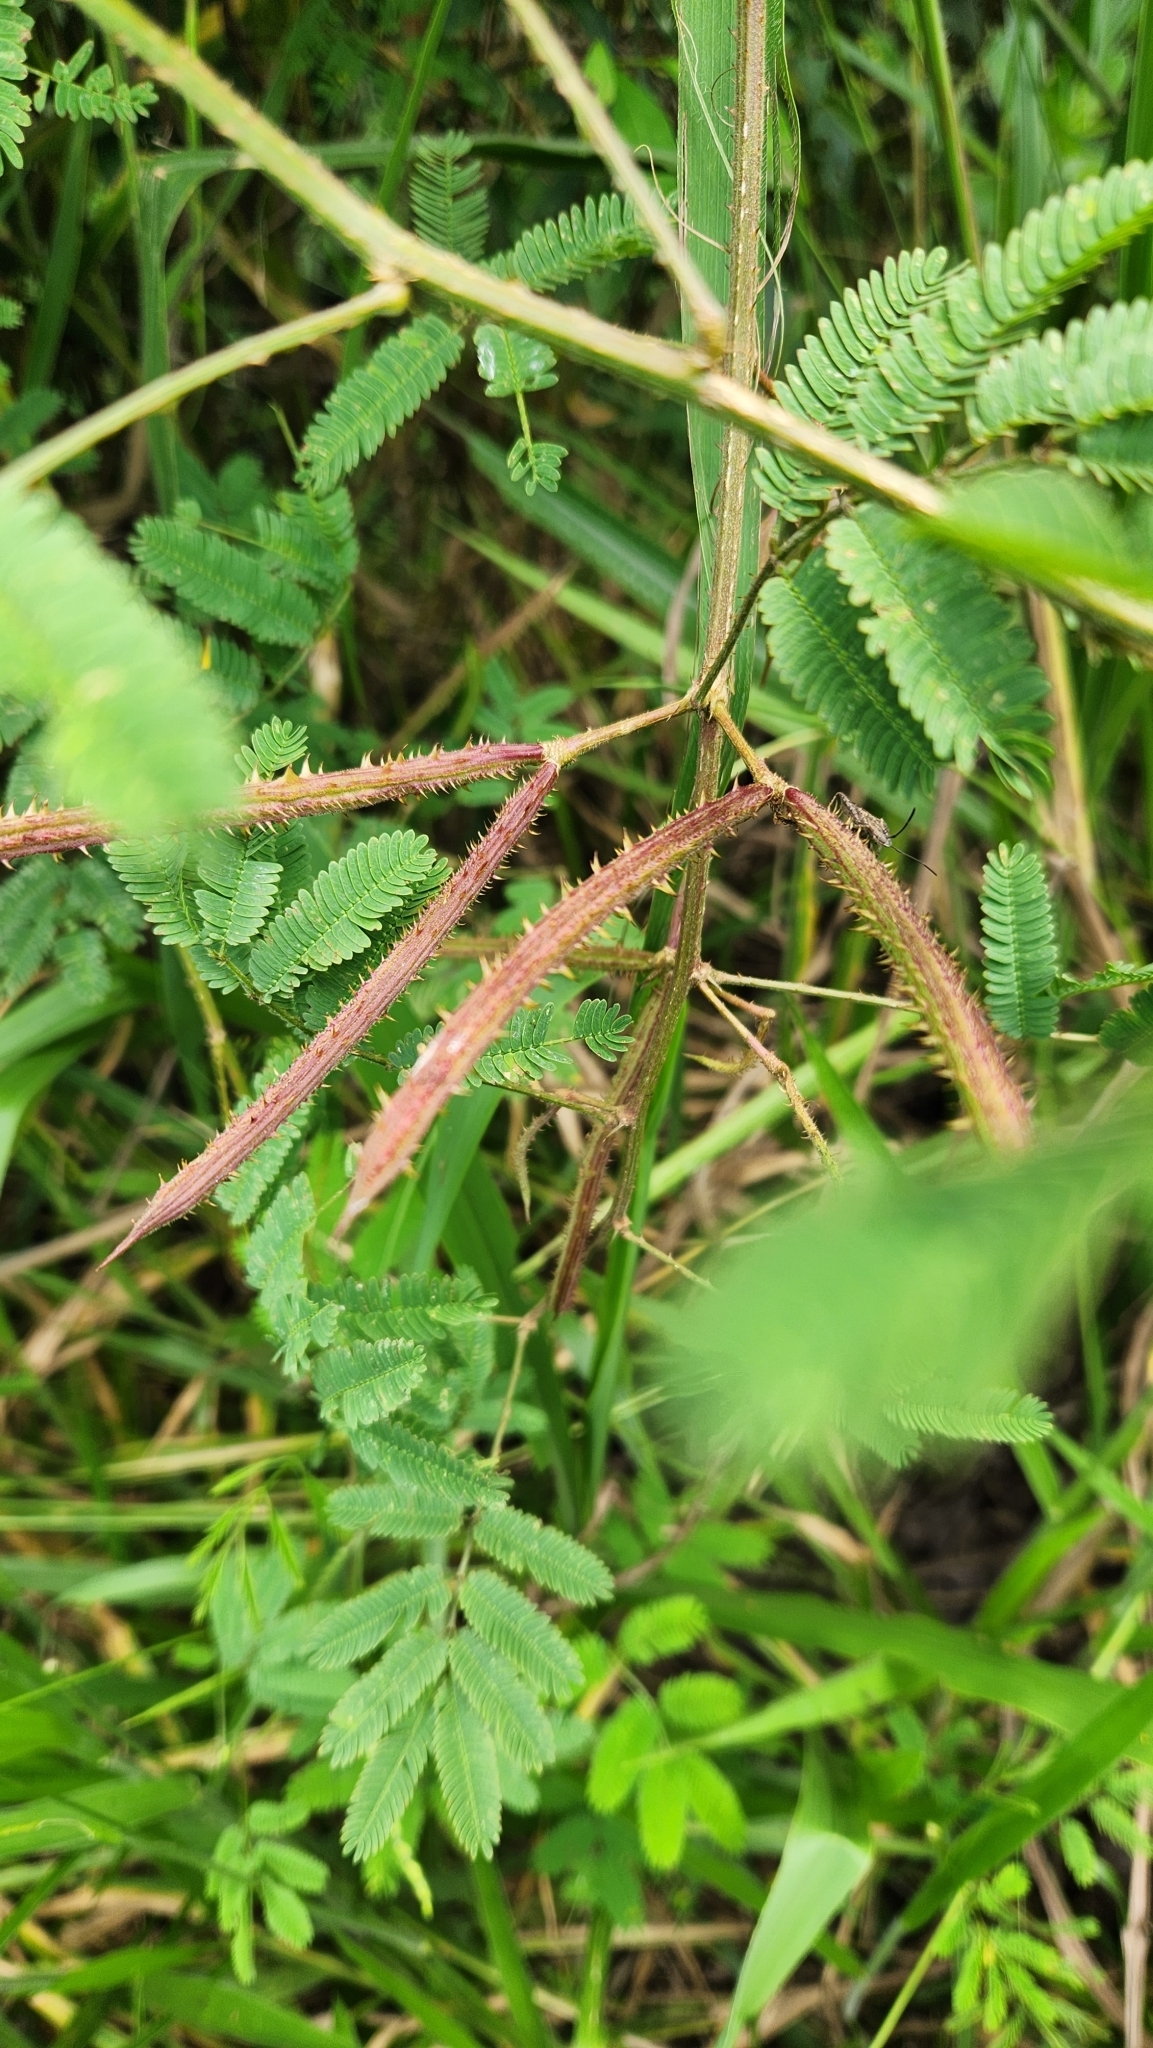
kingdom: Plantae
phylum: Tracheophyta
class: Magnoliopsida
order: Fabales
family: Fabaceae
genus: Mimosa
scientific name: Mimosa candollei
